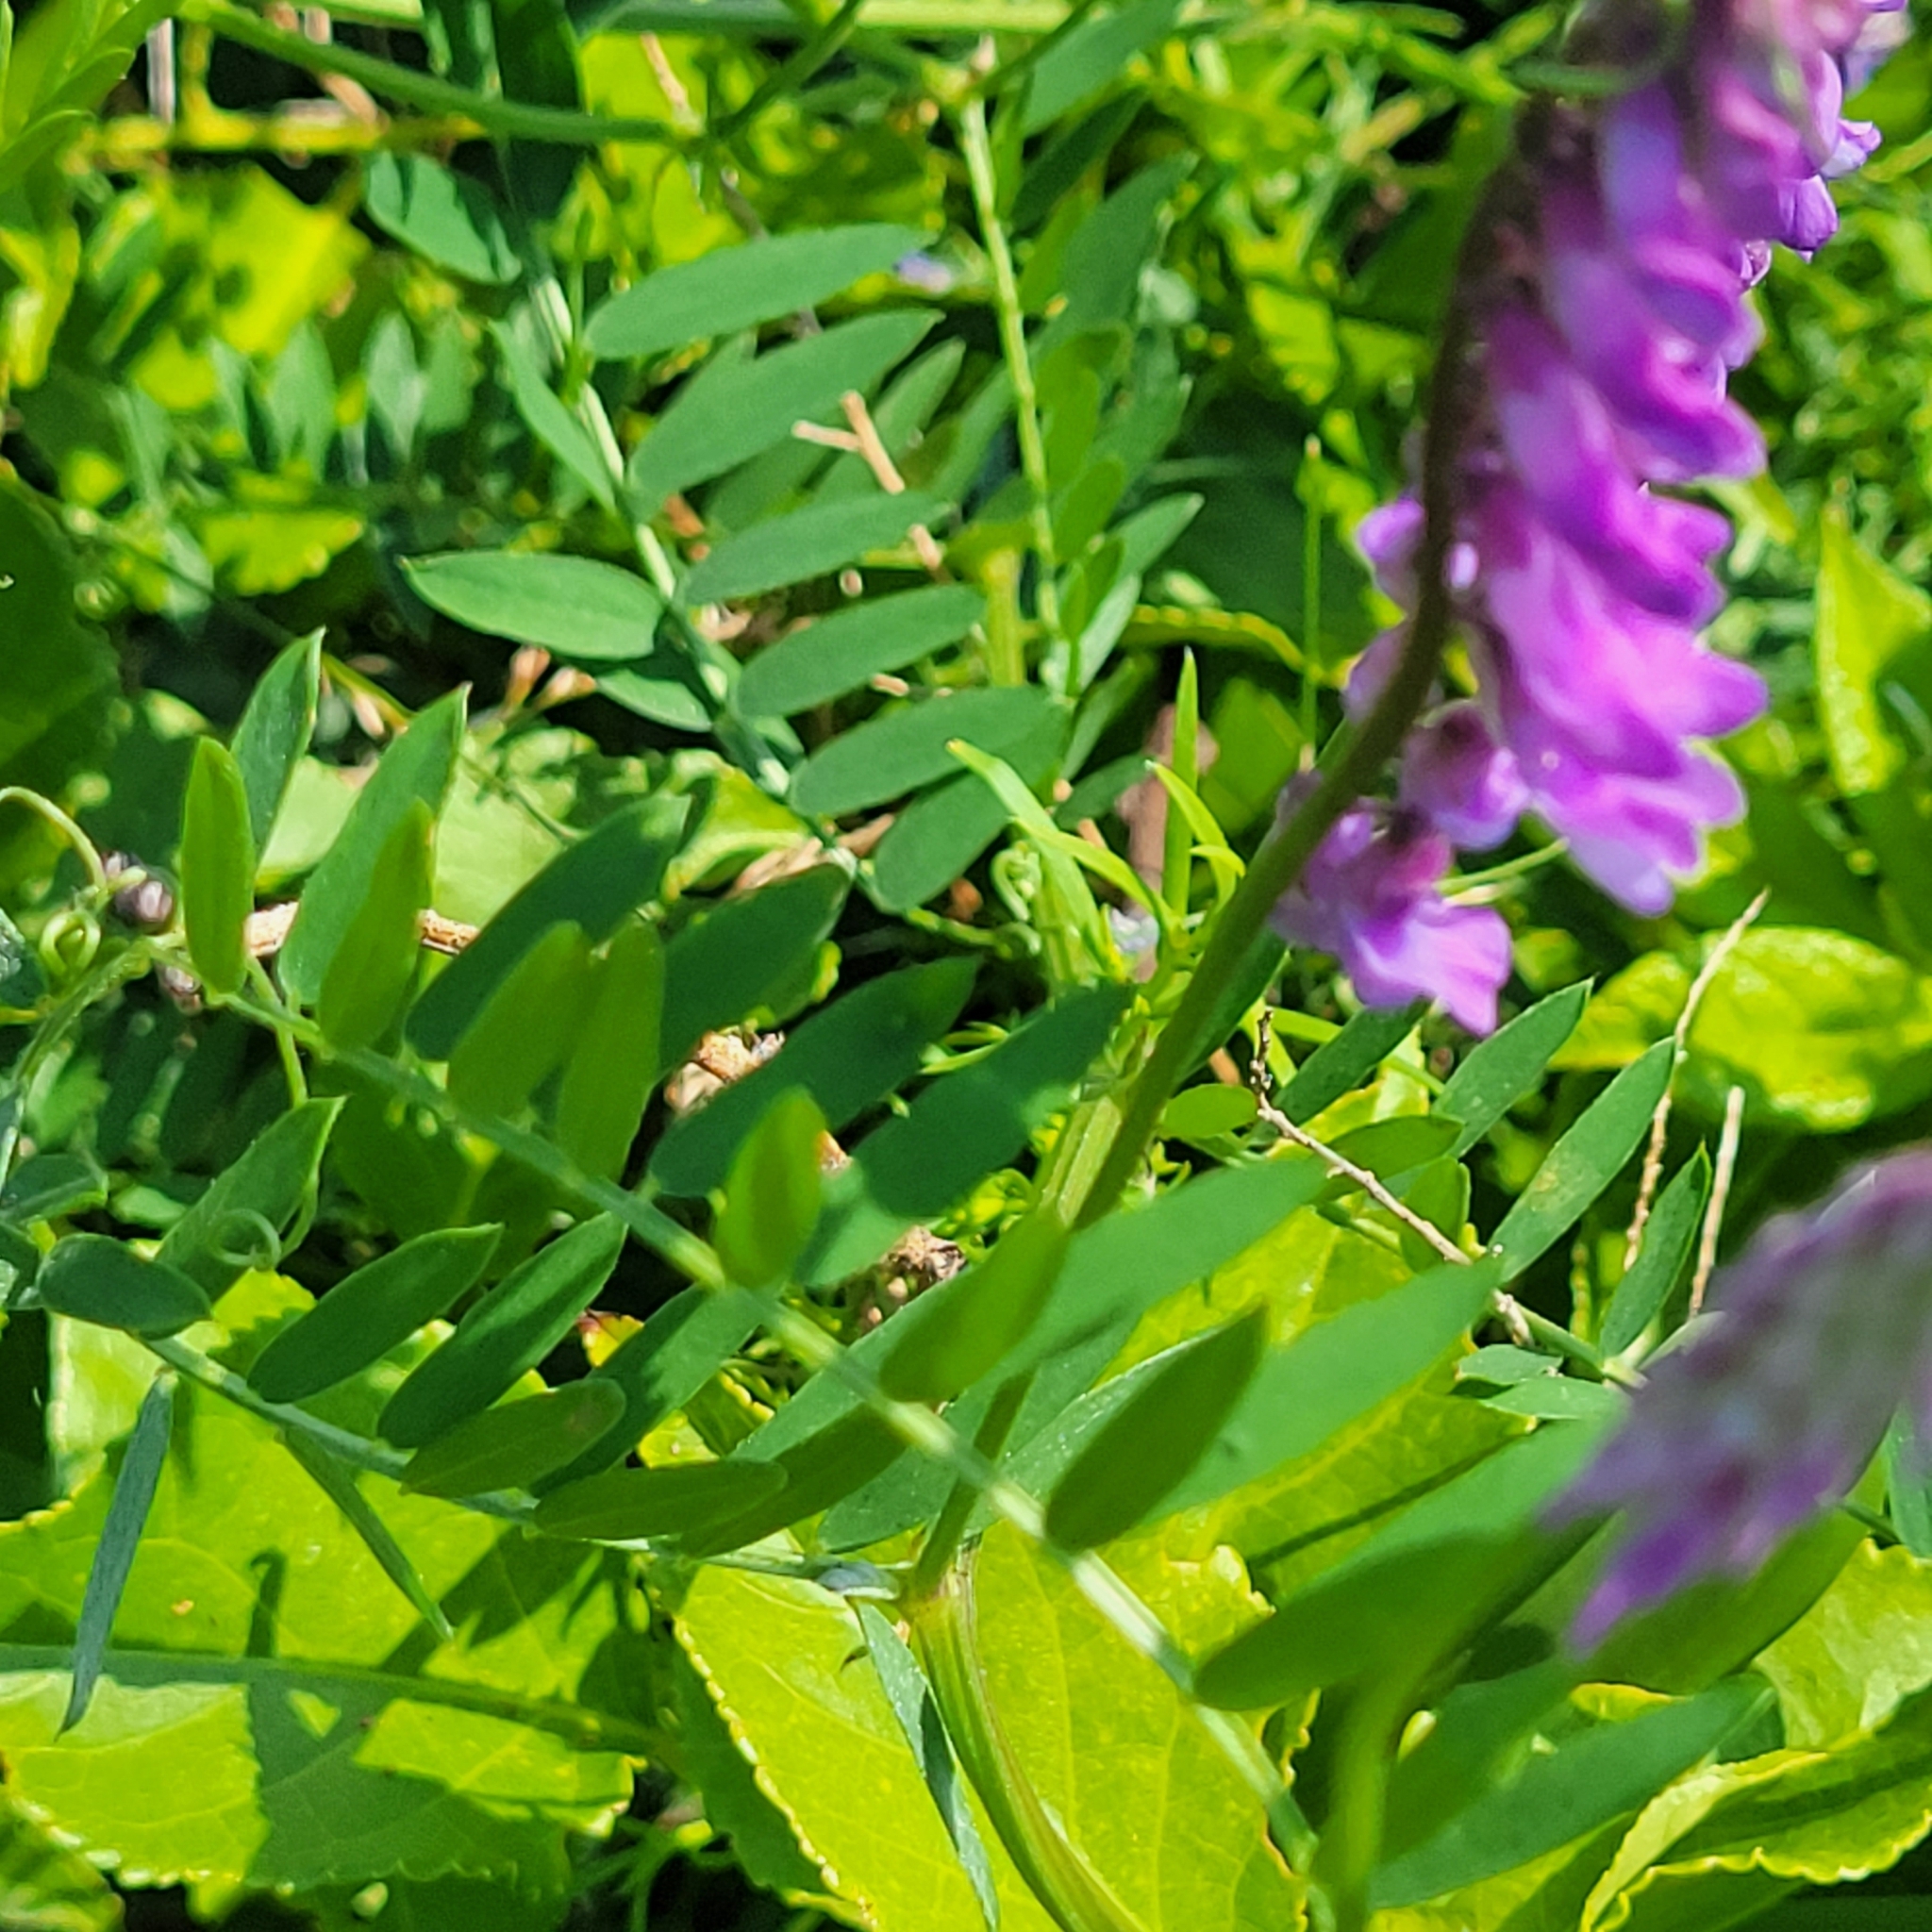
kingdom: Plantae
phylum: Tracheophyta
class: Magnoliopsida
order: Fabales
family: Fabaceae
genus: Vicia
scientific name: Vicia cracca
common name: Bird vetch
